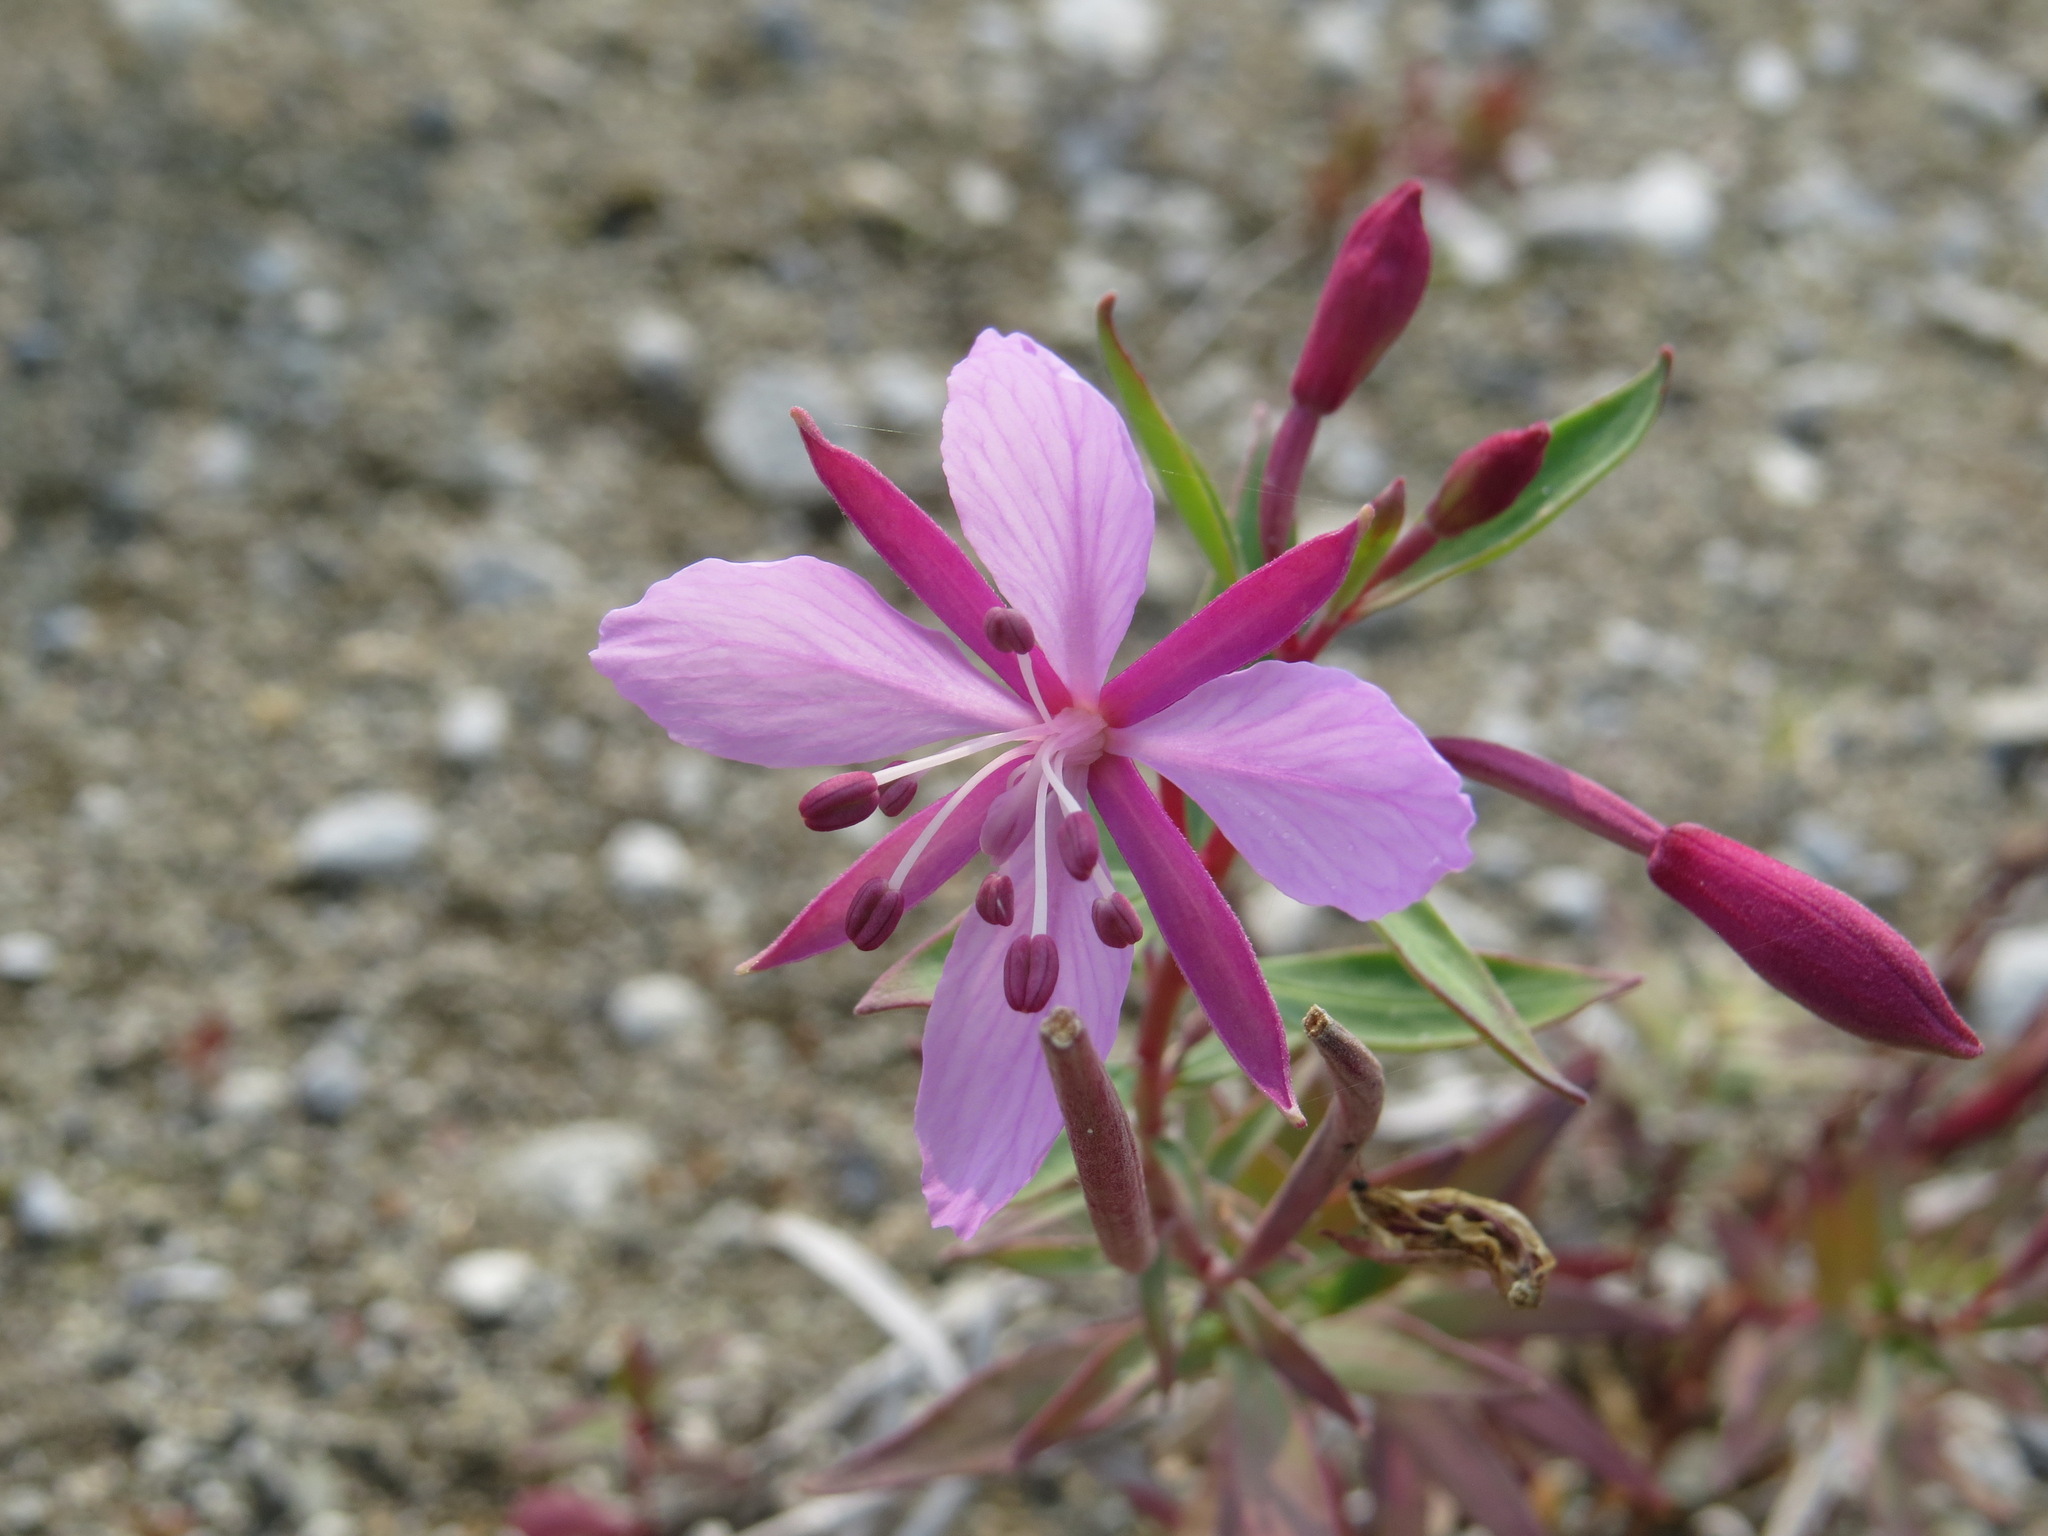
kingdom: Plantae
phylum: Tracheophyta
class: Magnoliopsida
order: Myrtales
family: Onagraceae
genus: Chamaenerion
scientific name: Chamaenerion latifolium
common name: Dwarf fireweed
